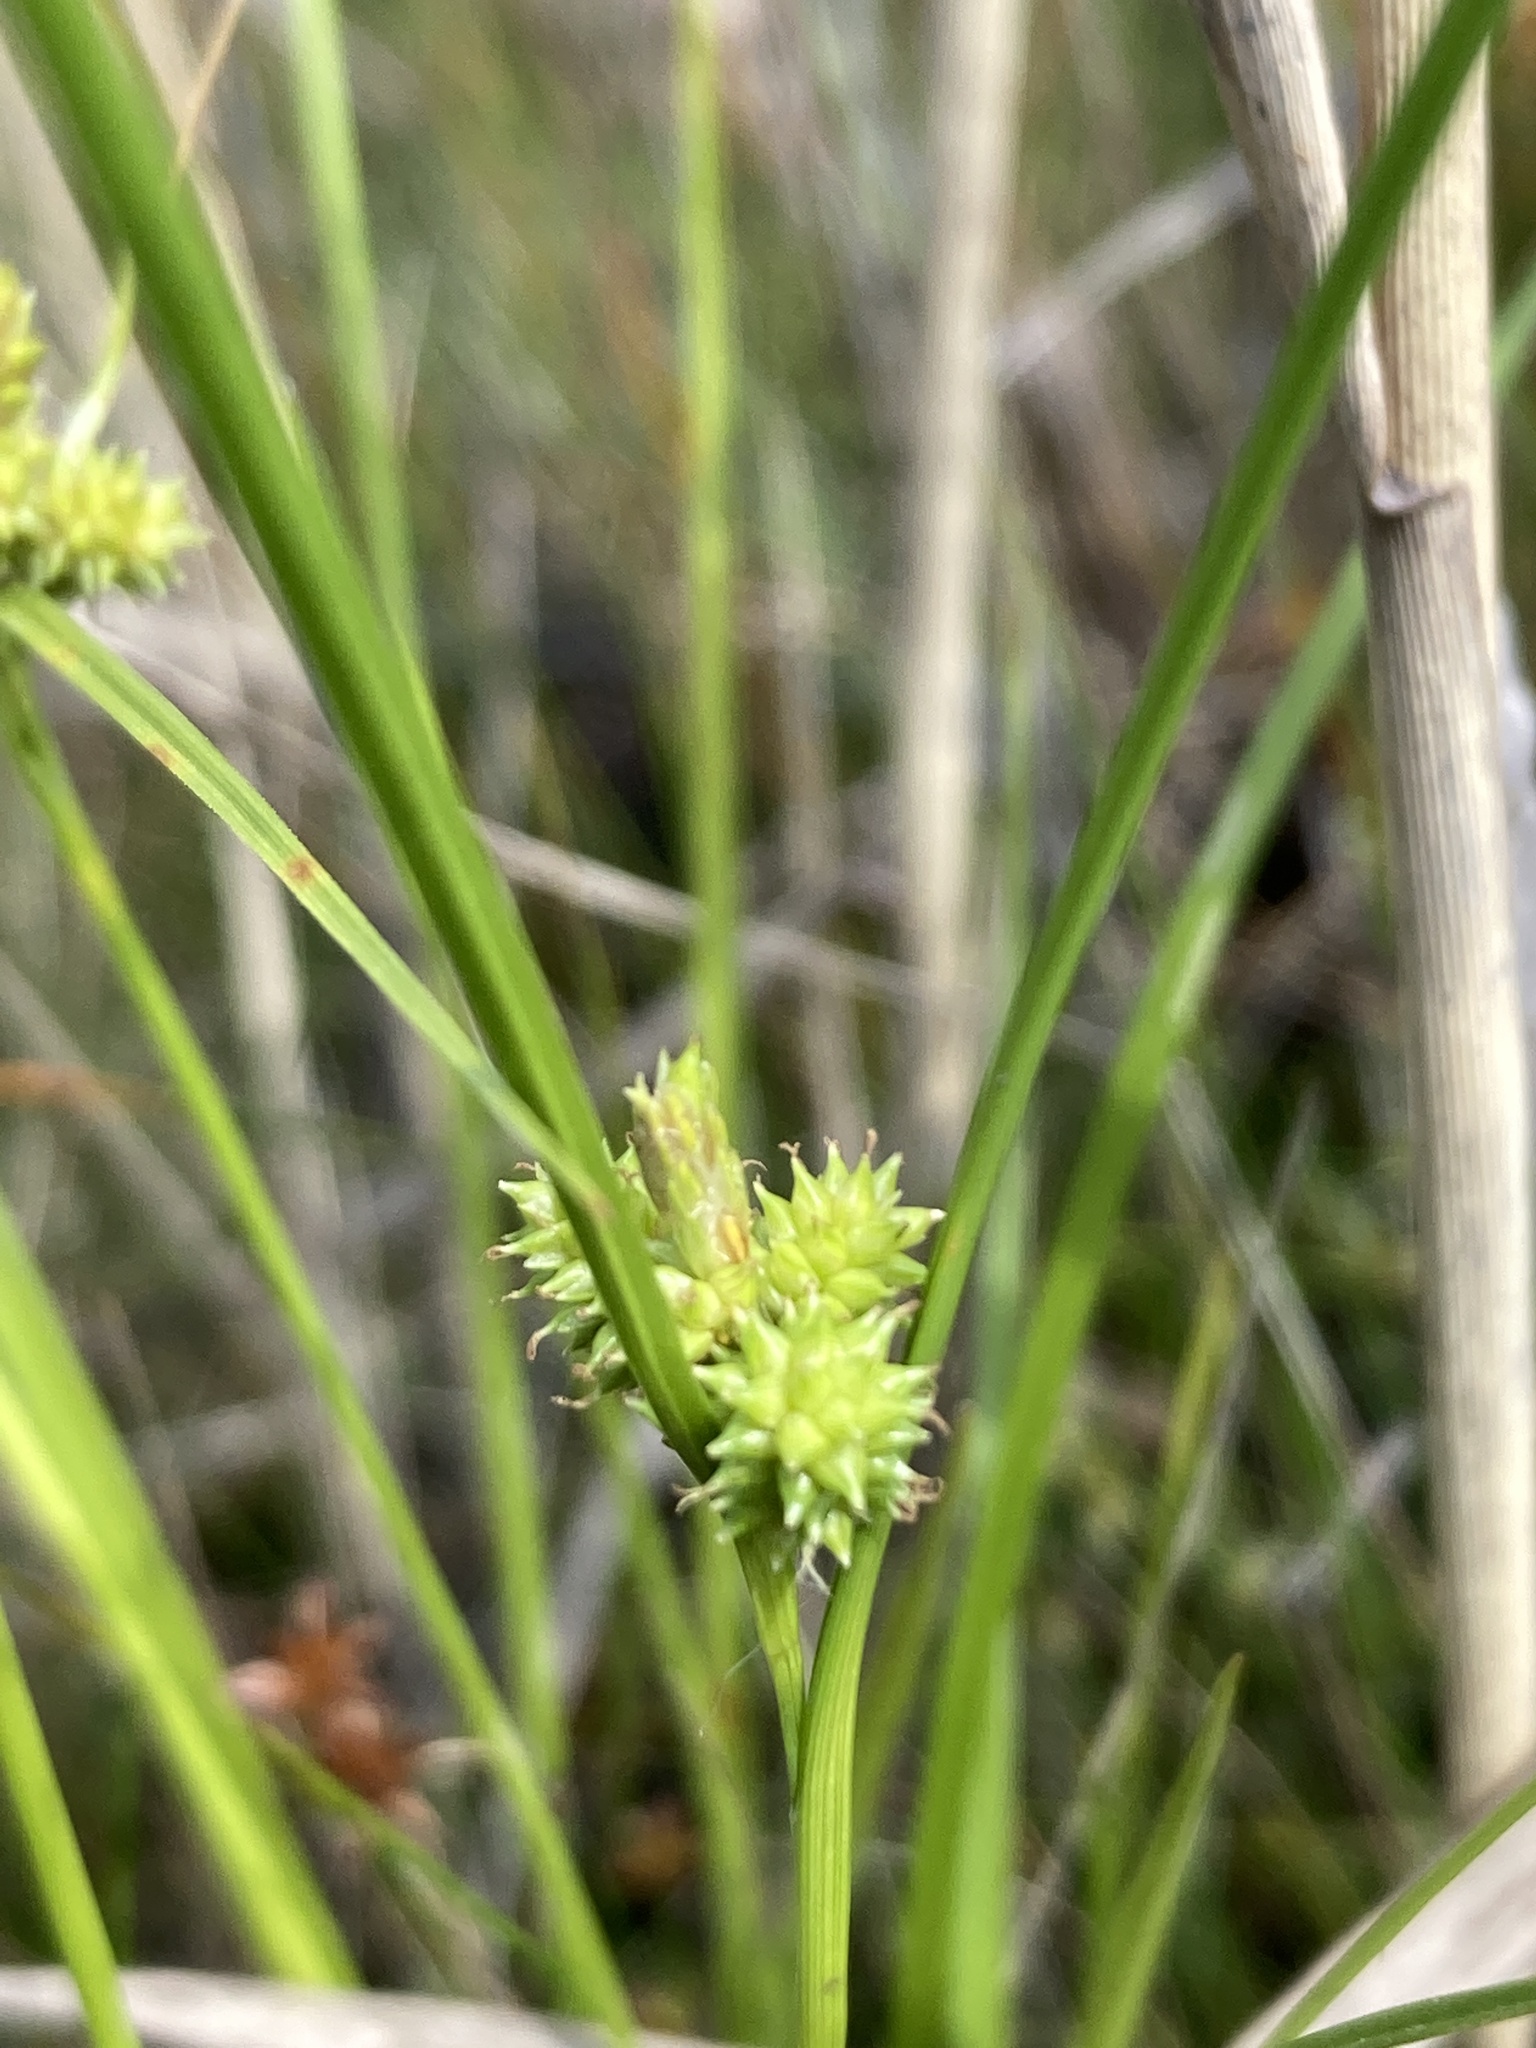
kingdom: Plantae
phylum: Tracheophyta
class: Liliopsida
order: Poales
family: Cyperaceae
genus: Carex
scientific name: Carex
